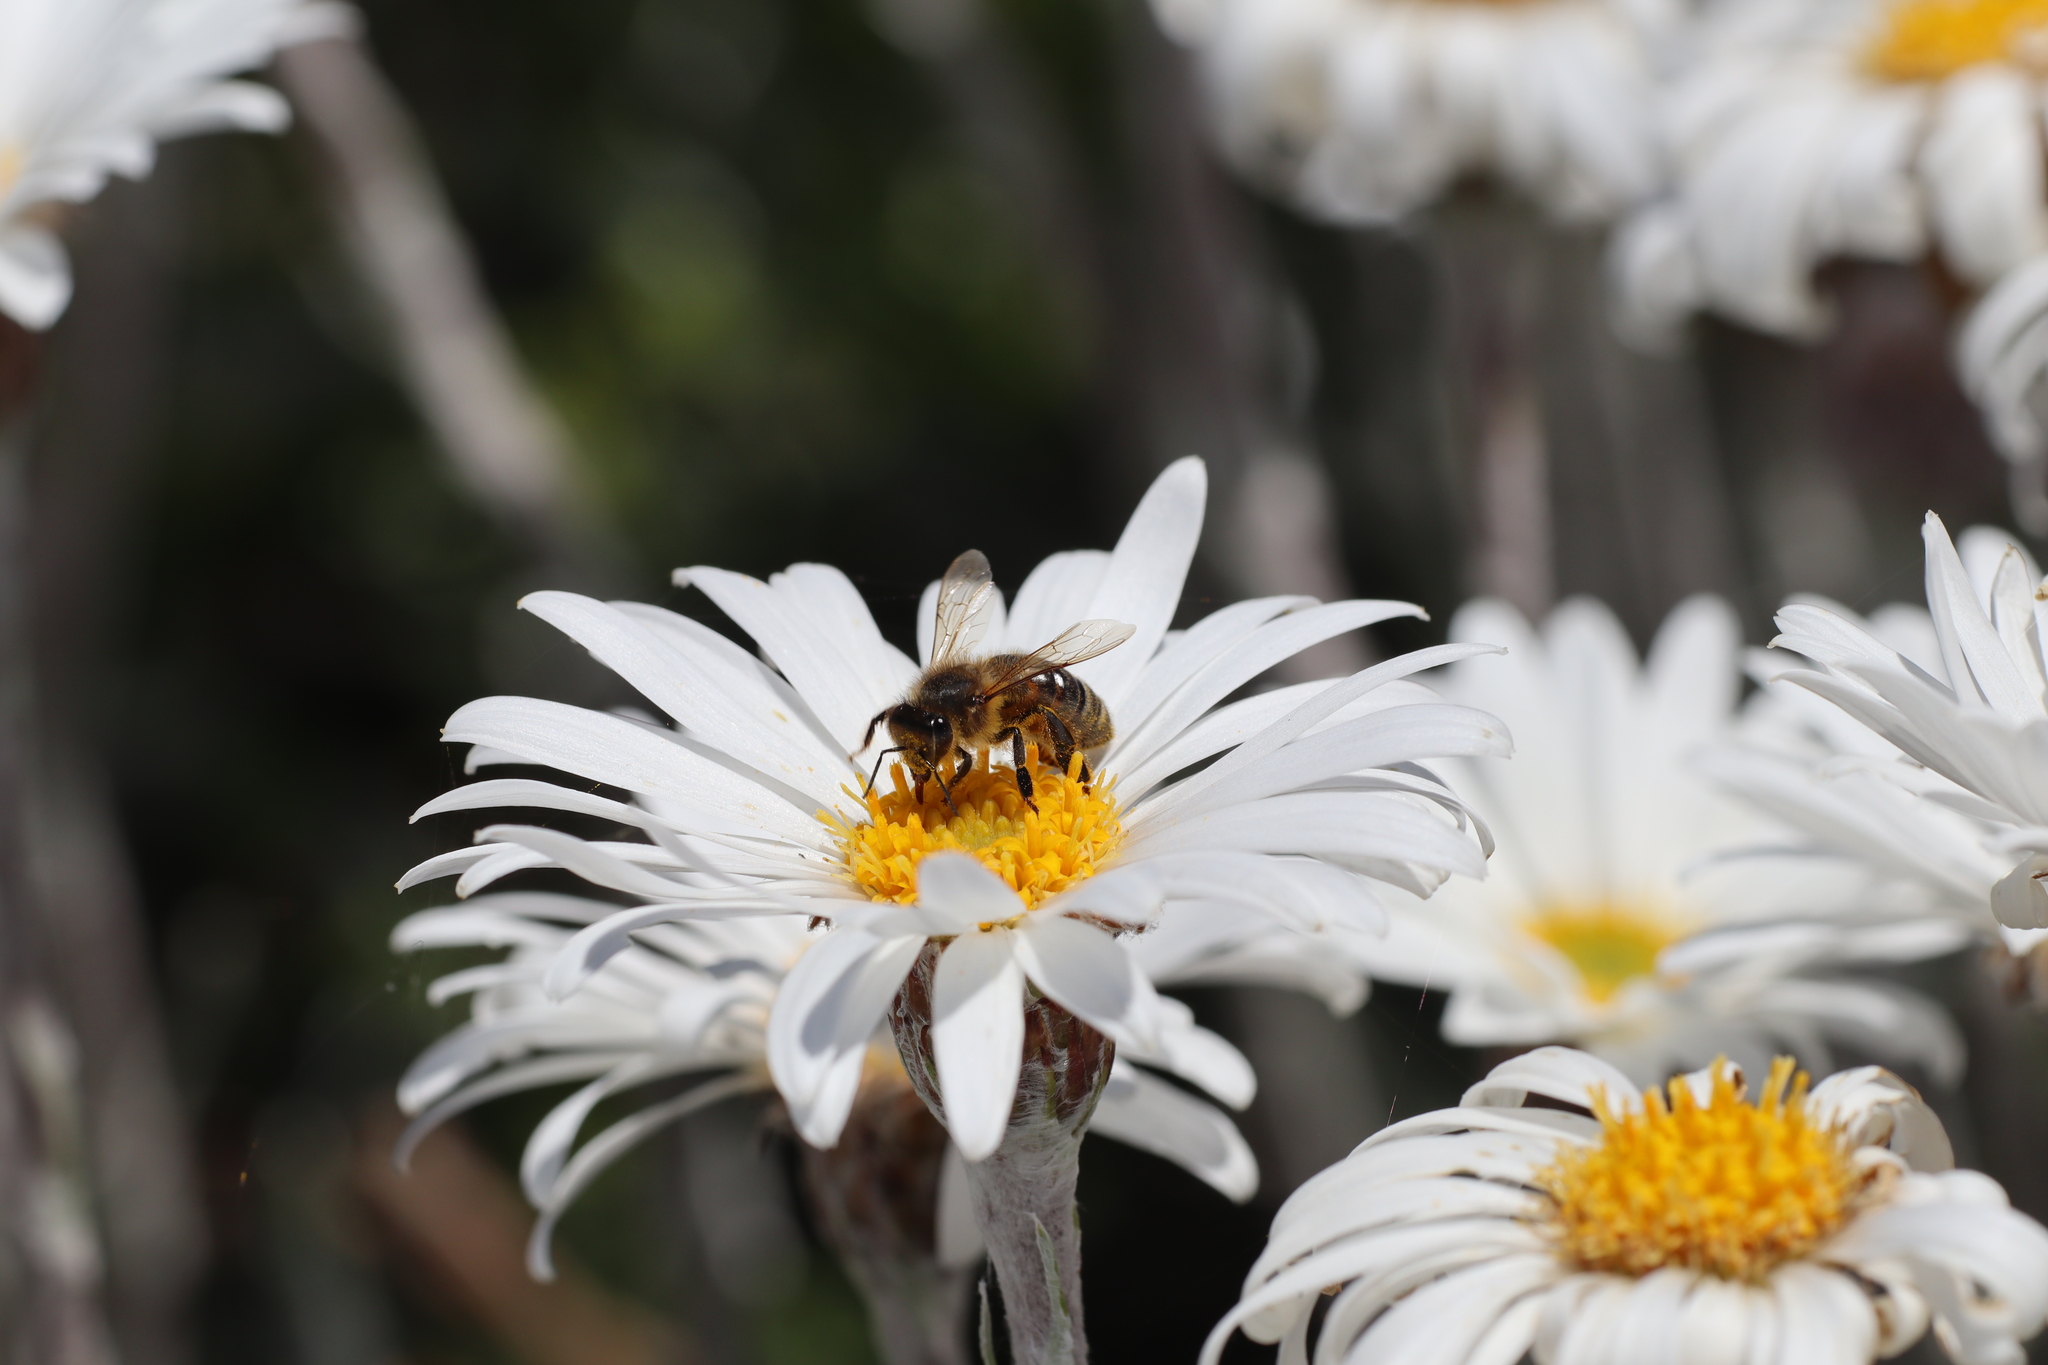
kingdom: Animalia
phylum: Arthropoda
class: Insecta
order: Hymenoptera
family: Apidae
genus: Apis
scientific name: Apis mellifera
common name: Honey bee
